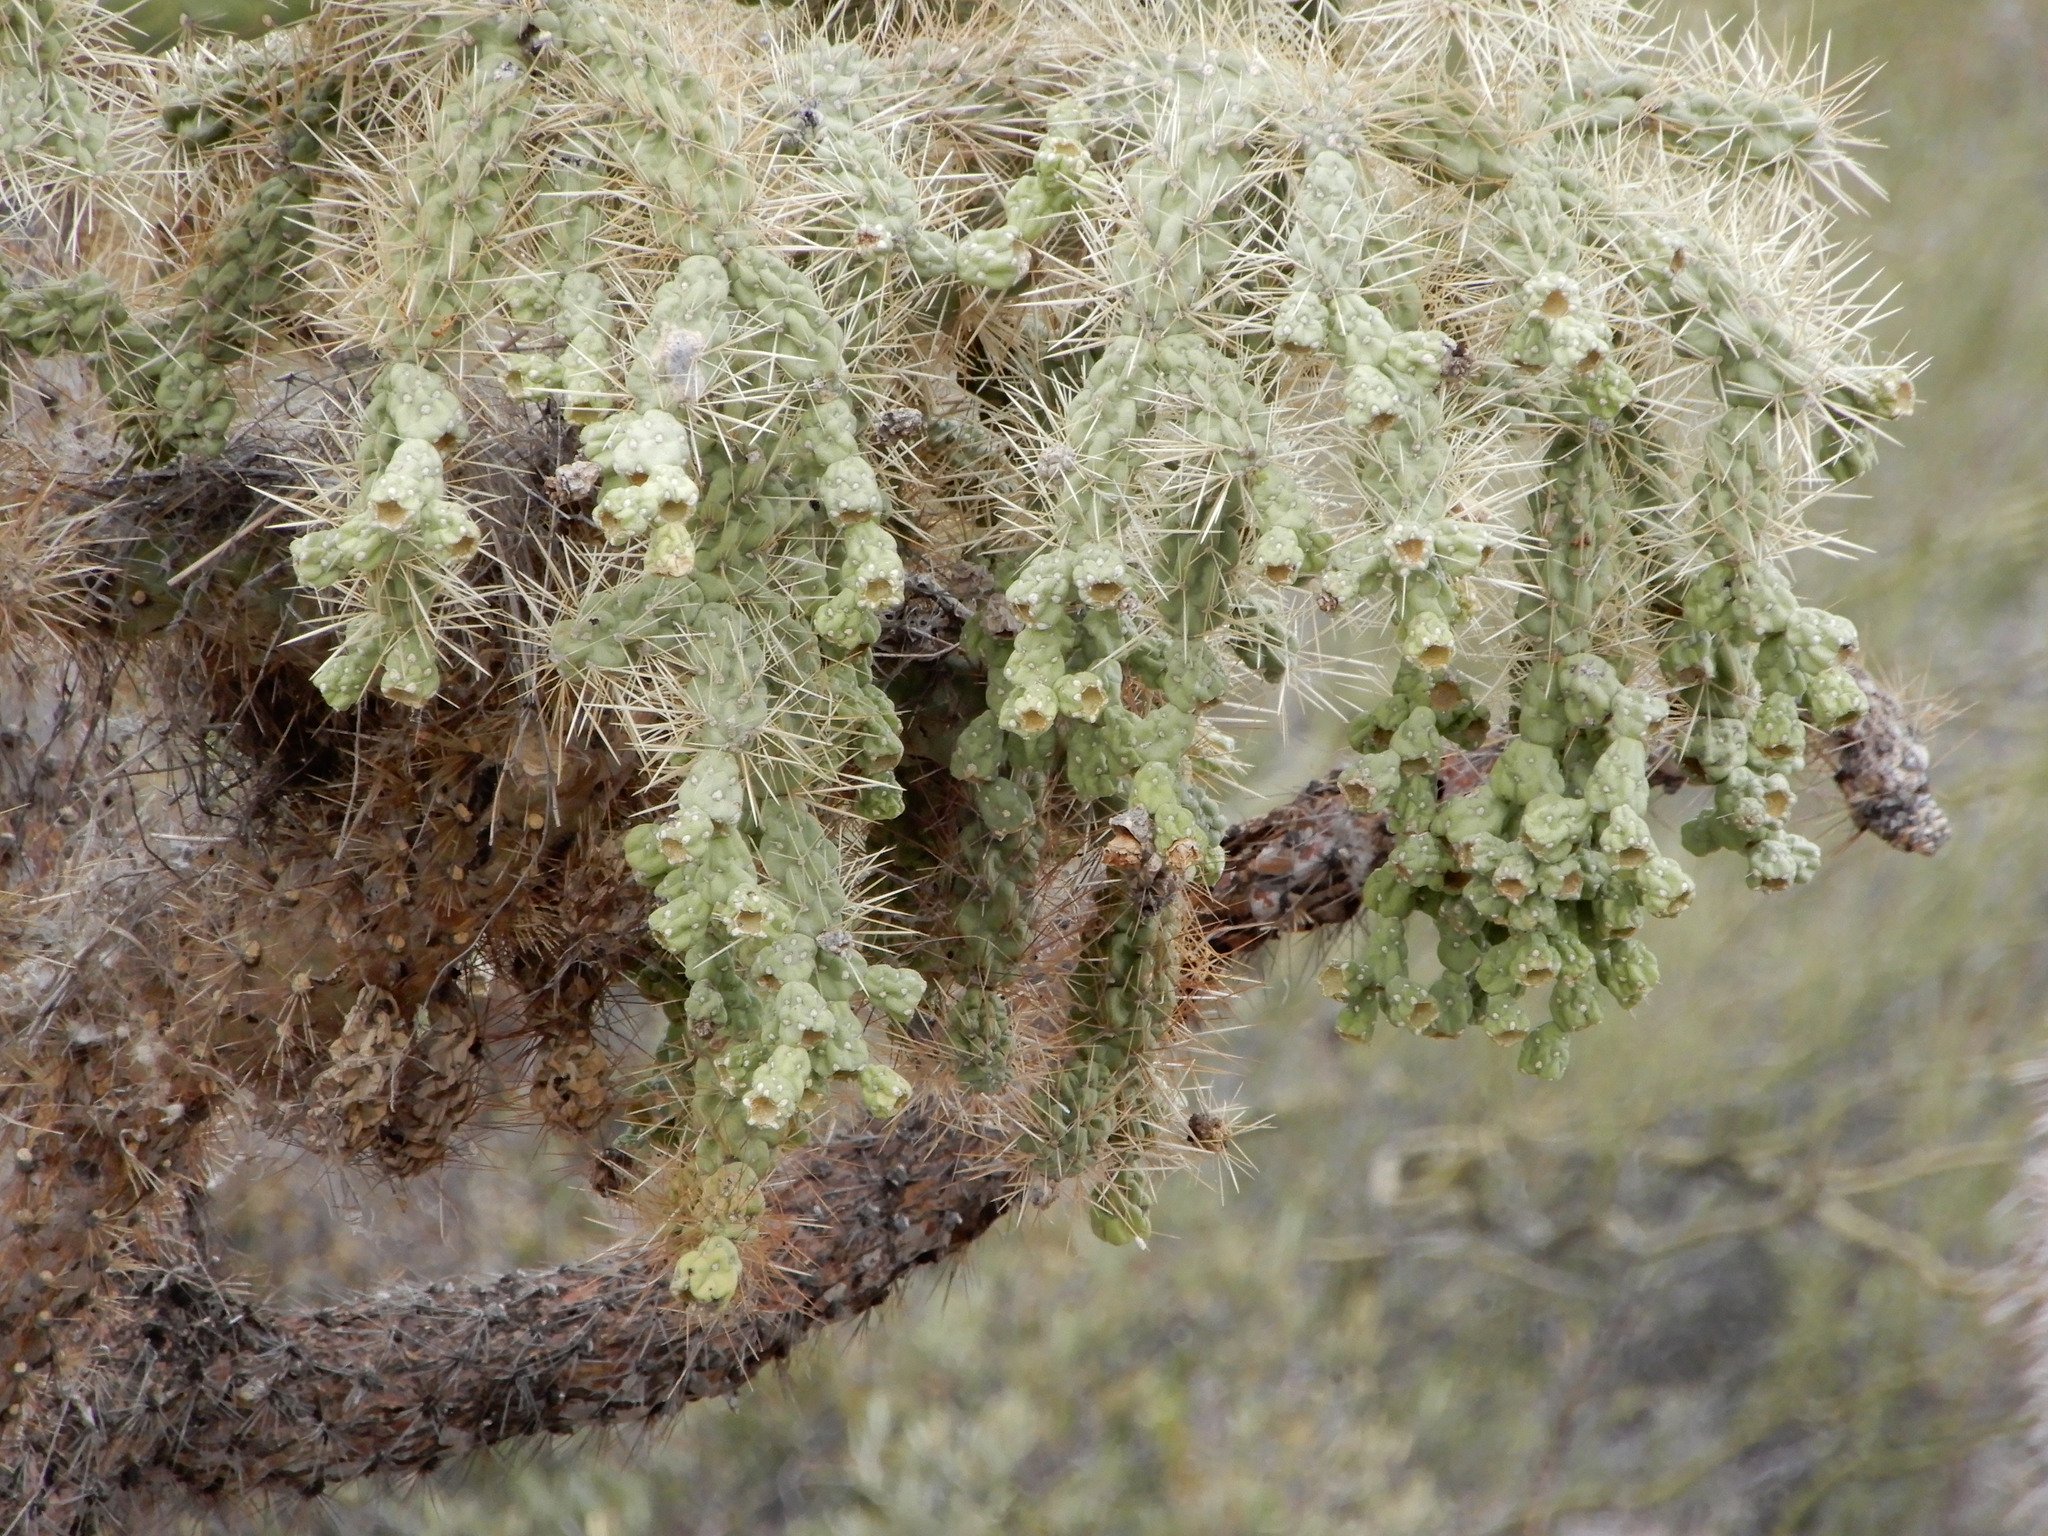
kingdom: Plantae
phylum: Tracheophyta
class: Magnoliopsida
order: Caryophyllales
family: Cactaceae
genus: Cylindropuntia
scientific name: Cylindropuntia fulgida
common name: Jumping cholla
